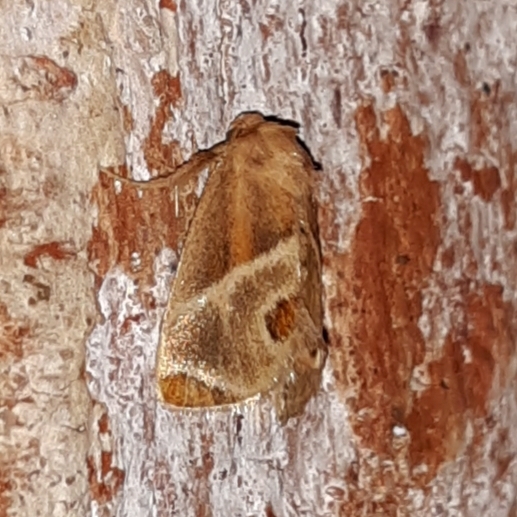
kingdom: Animalia
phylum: Arthropoda
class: Insecta
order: Lepidoptera
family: Limacodidae
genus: Apoda
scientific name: Apoda biguttata
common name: Shagreened slug moth
